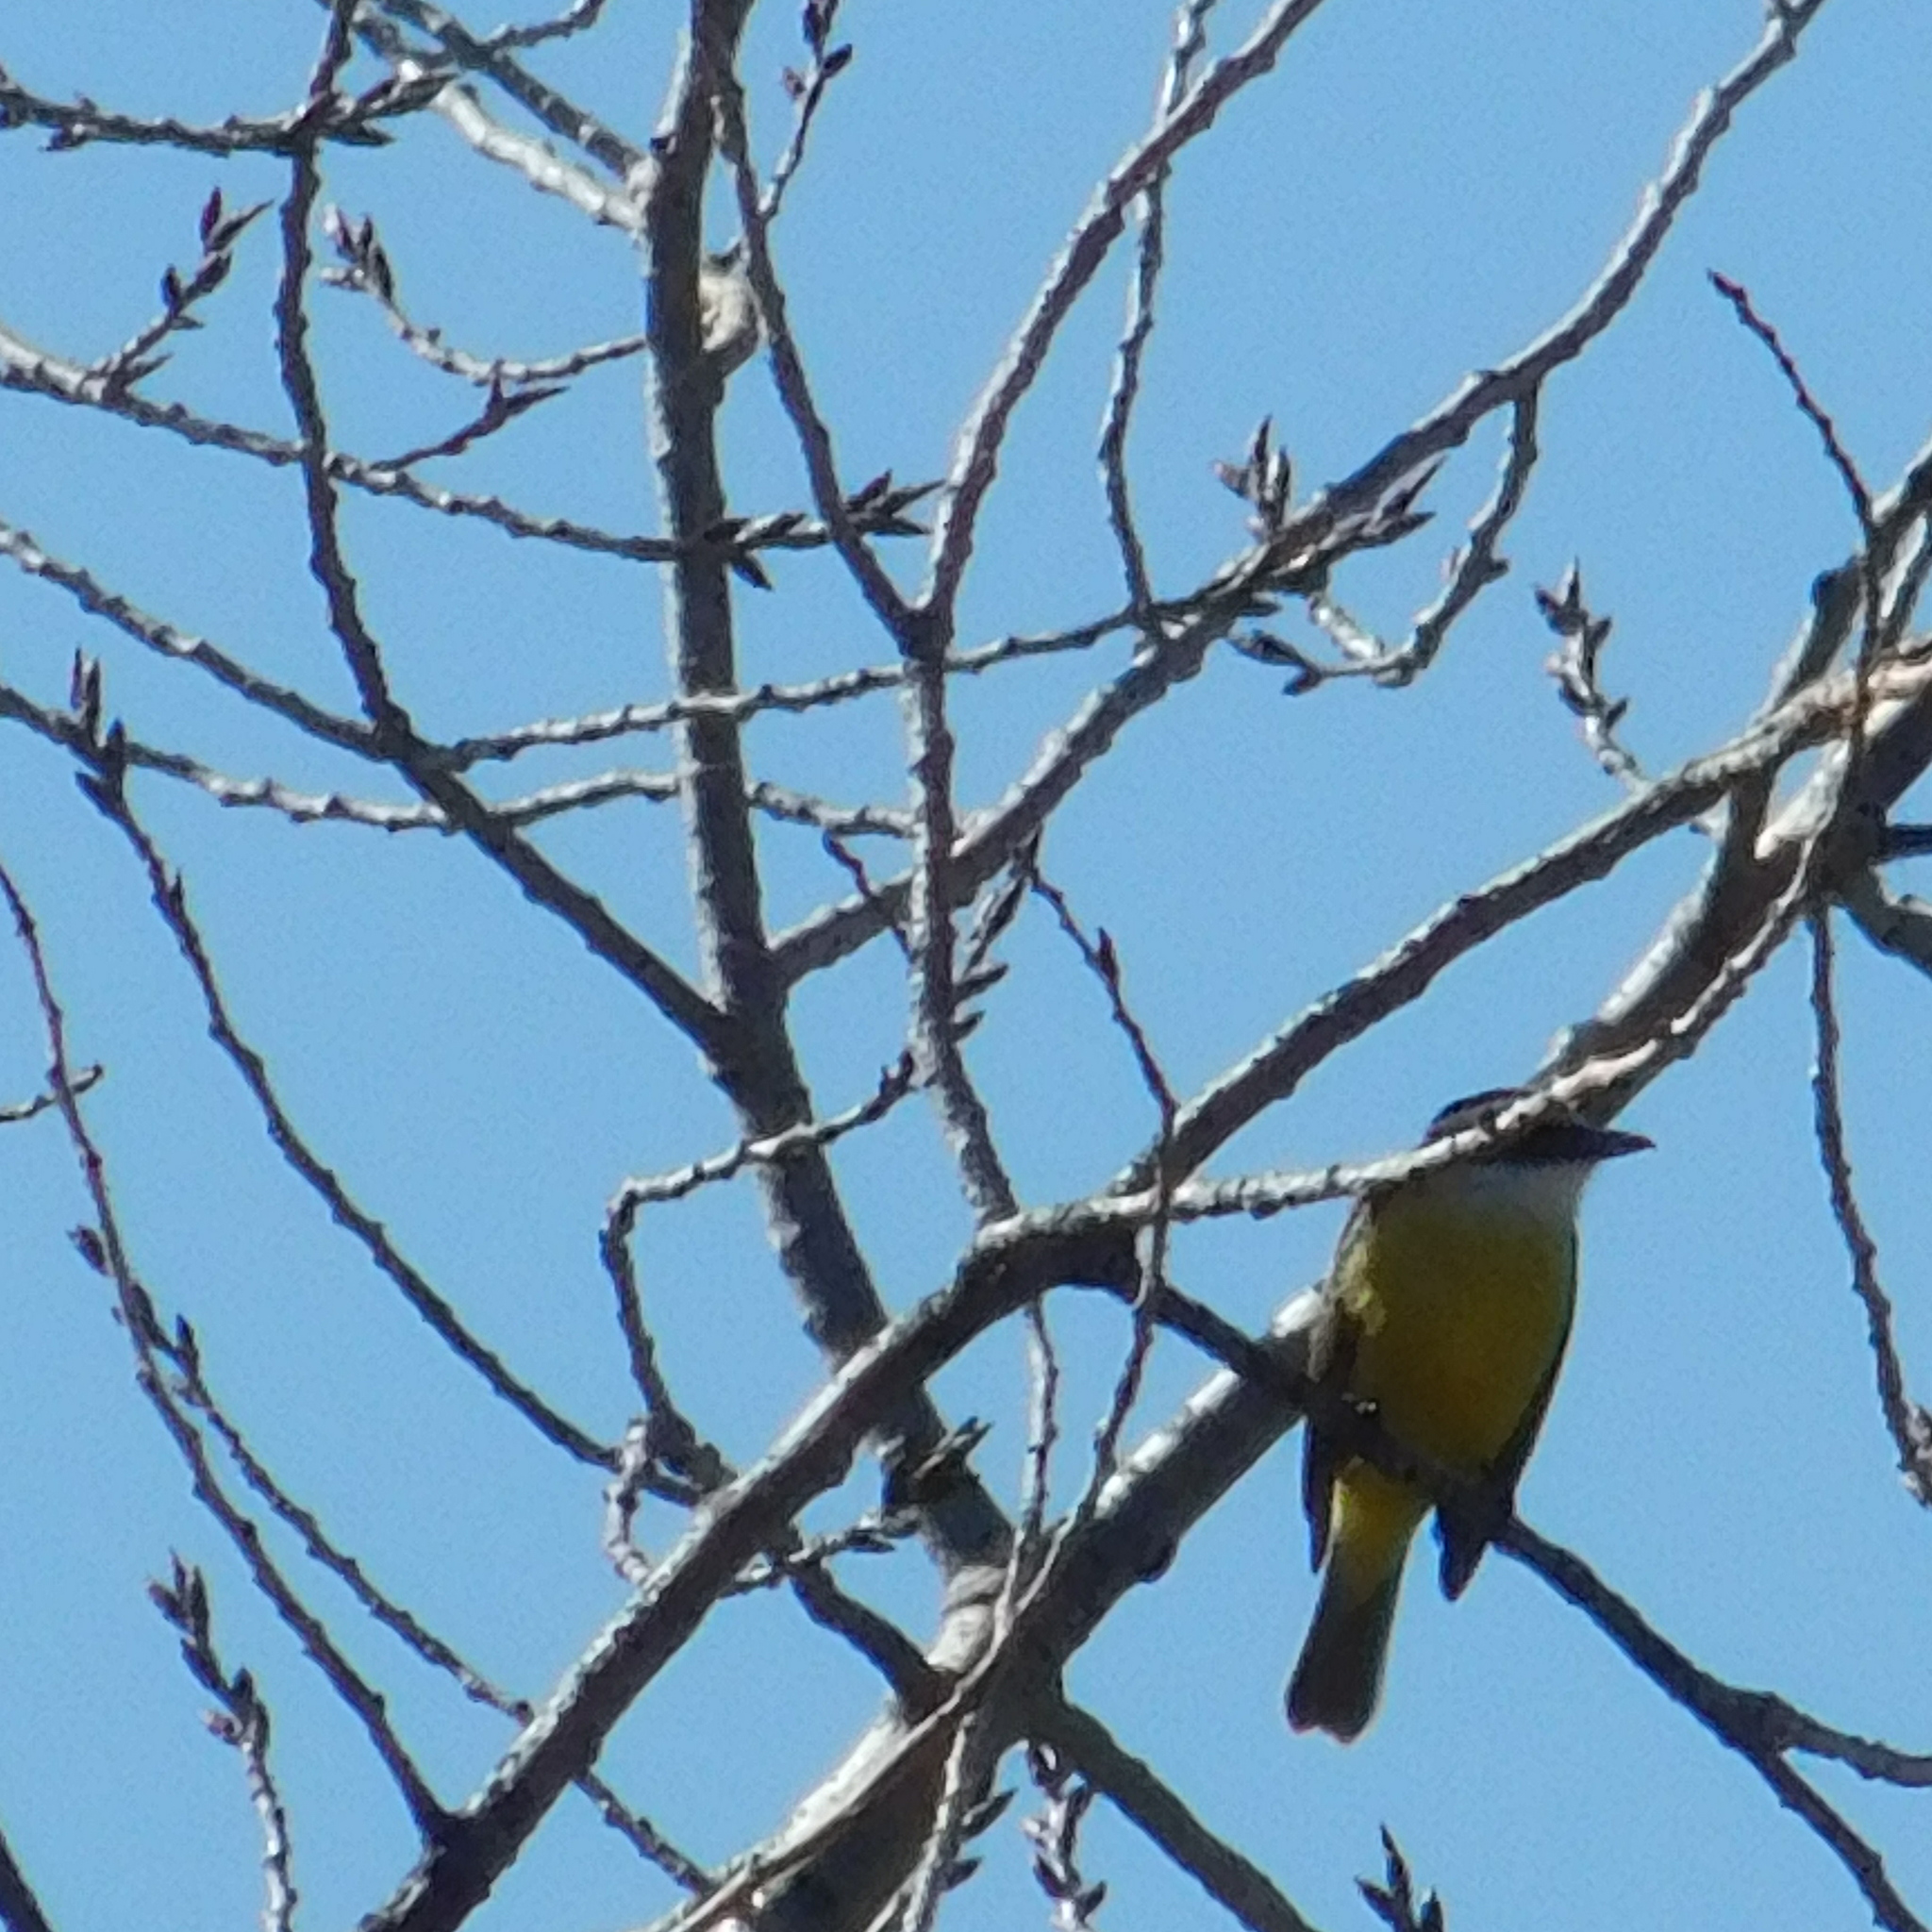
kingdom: Animalia
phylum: Chordata
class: Aves
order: Passeriformes
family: Tyrannidae
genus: Pitangus
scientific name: Pitangus sulphuratus
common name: Great kiskadee
